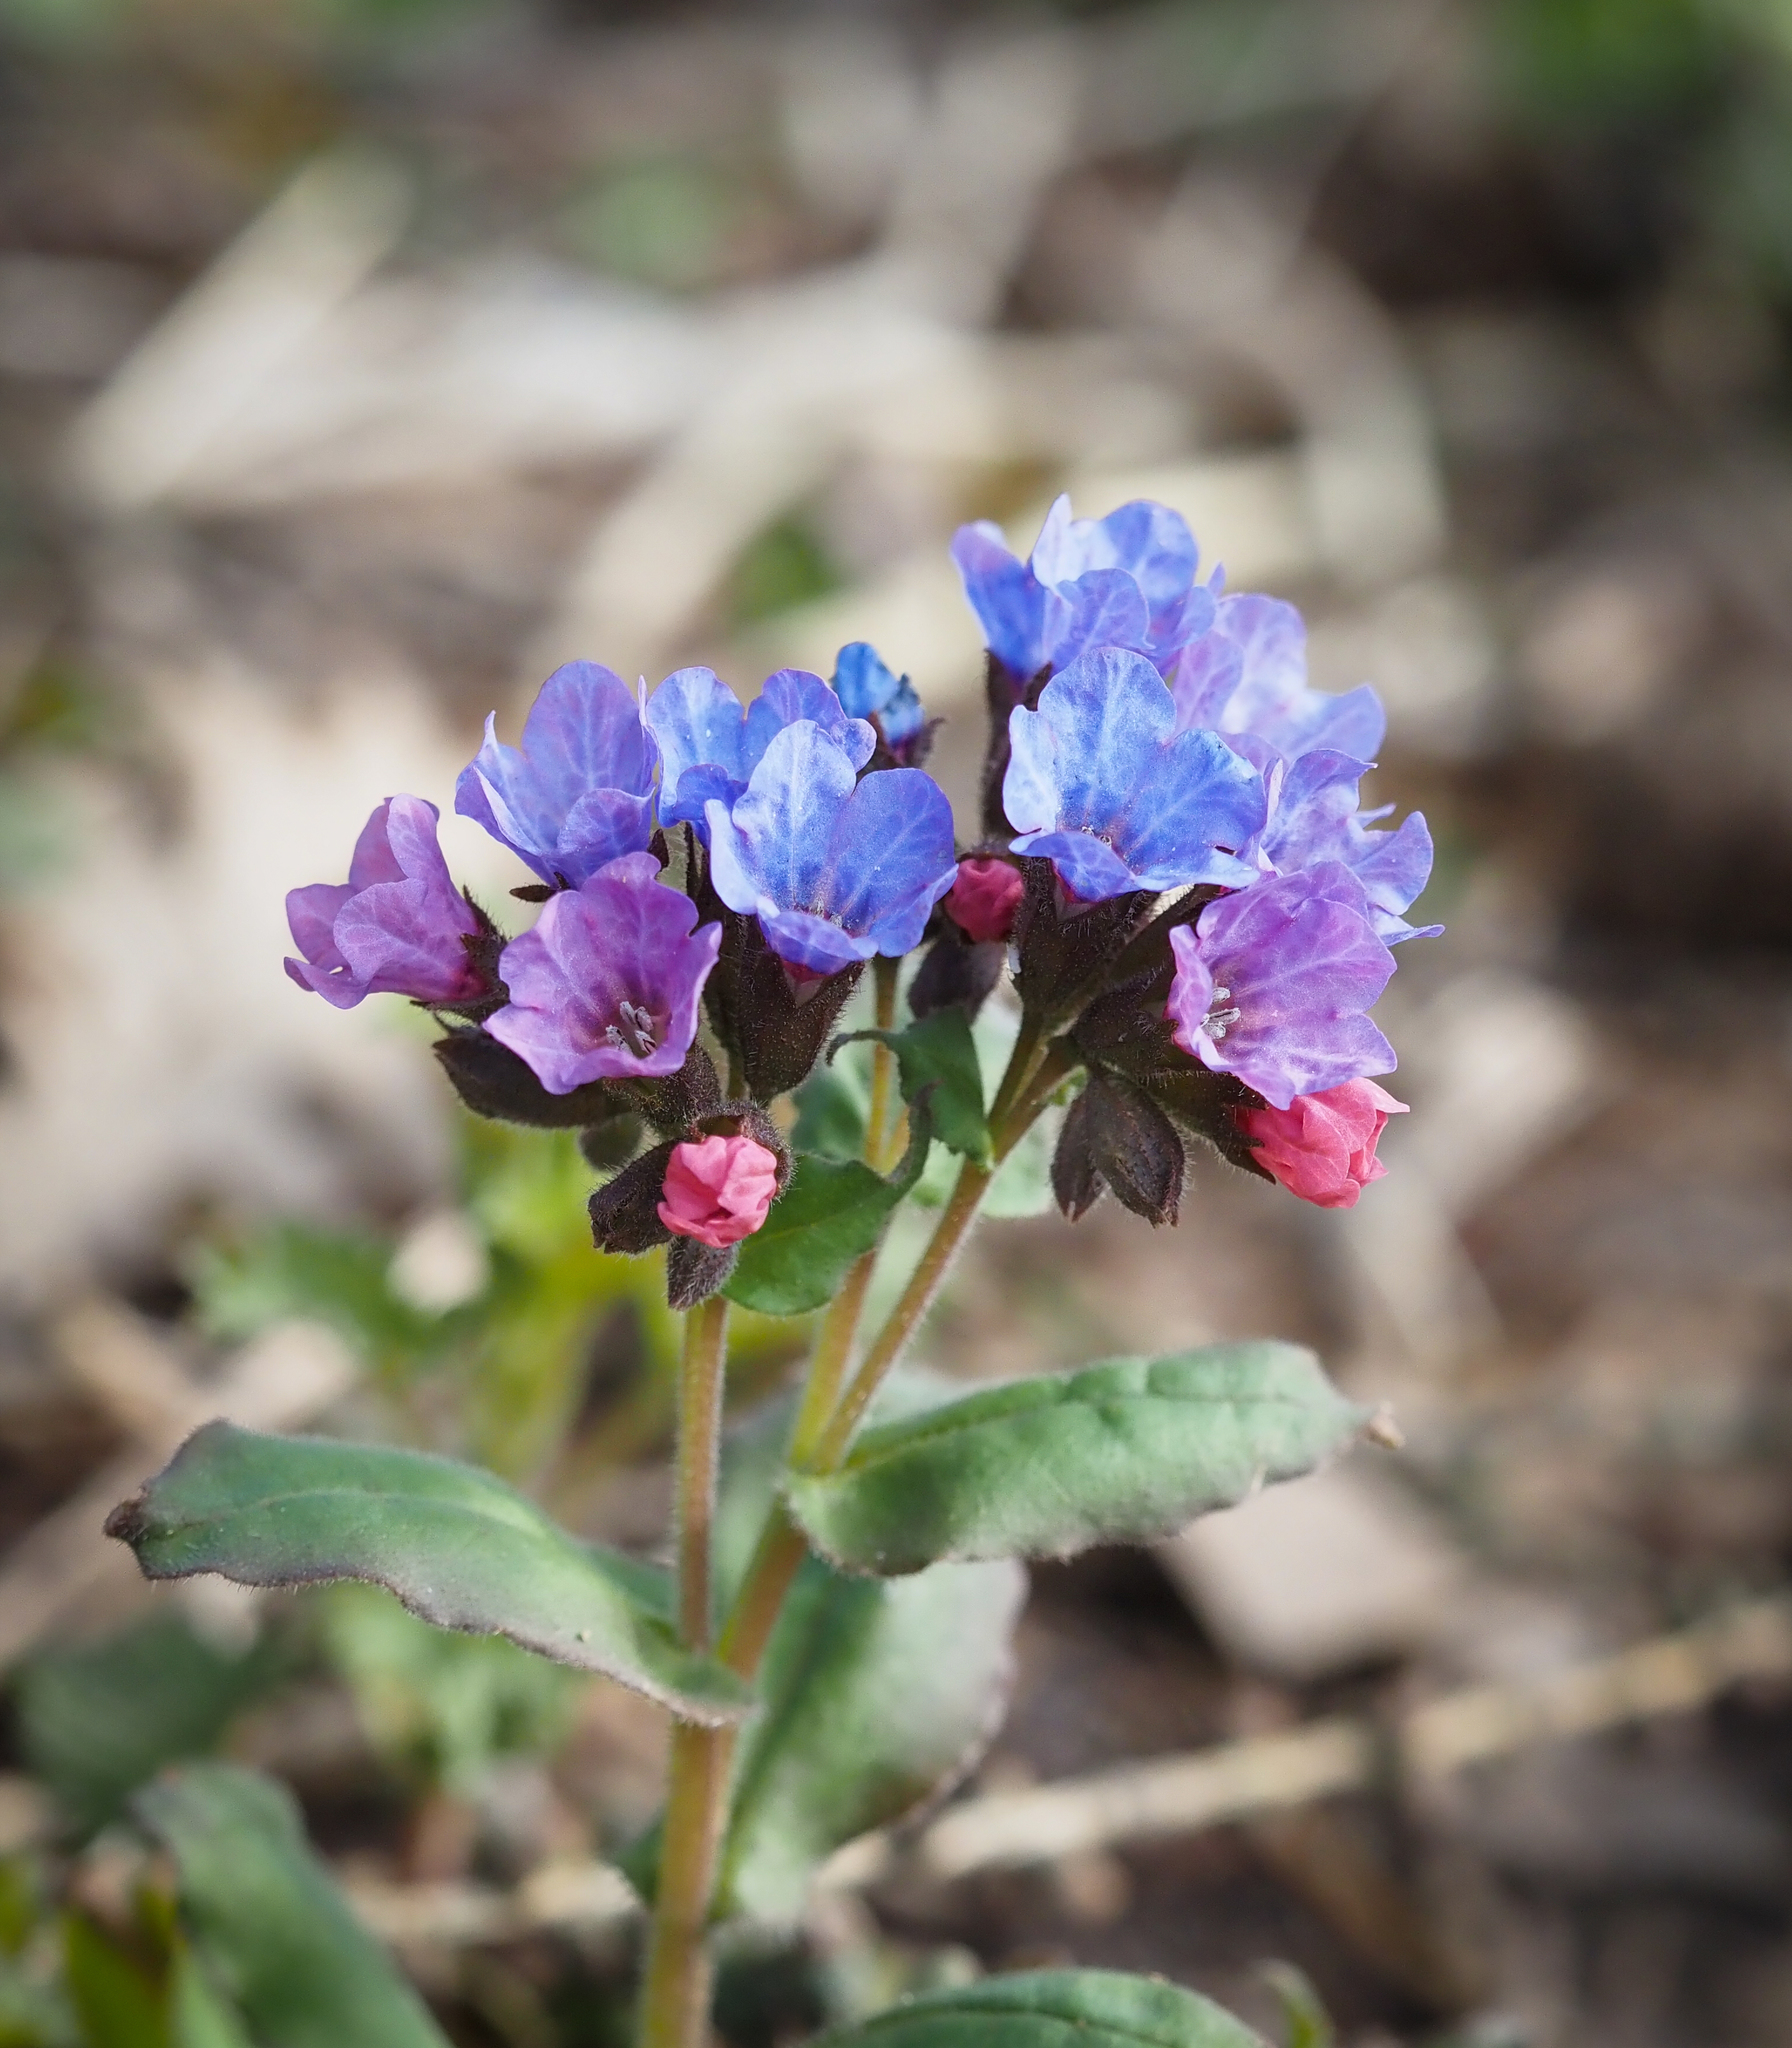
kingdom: Plantae
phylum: Tracheophyta
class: Magnoliopsida
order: Boraginales
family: Boraginaceae
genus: Pulmonaria
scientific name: Pulmonaria obscura
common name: Suffolk lungwort
